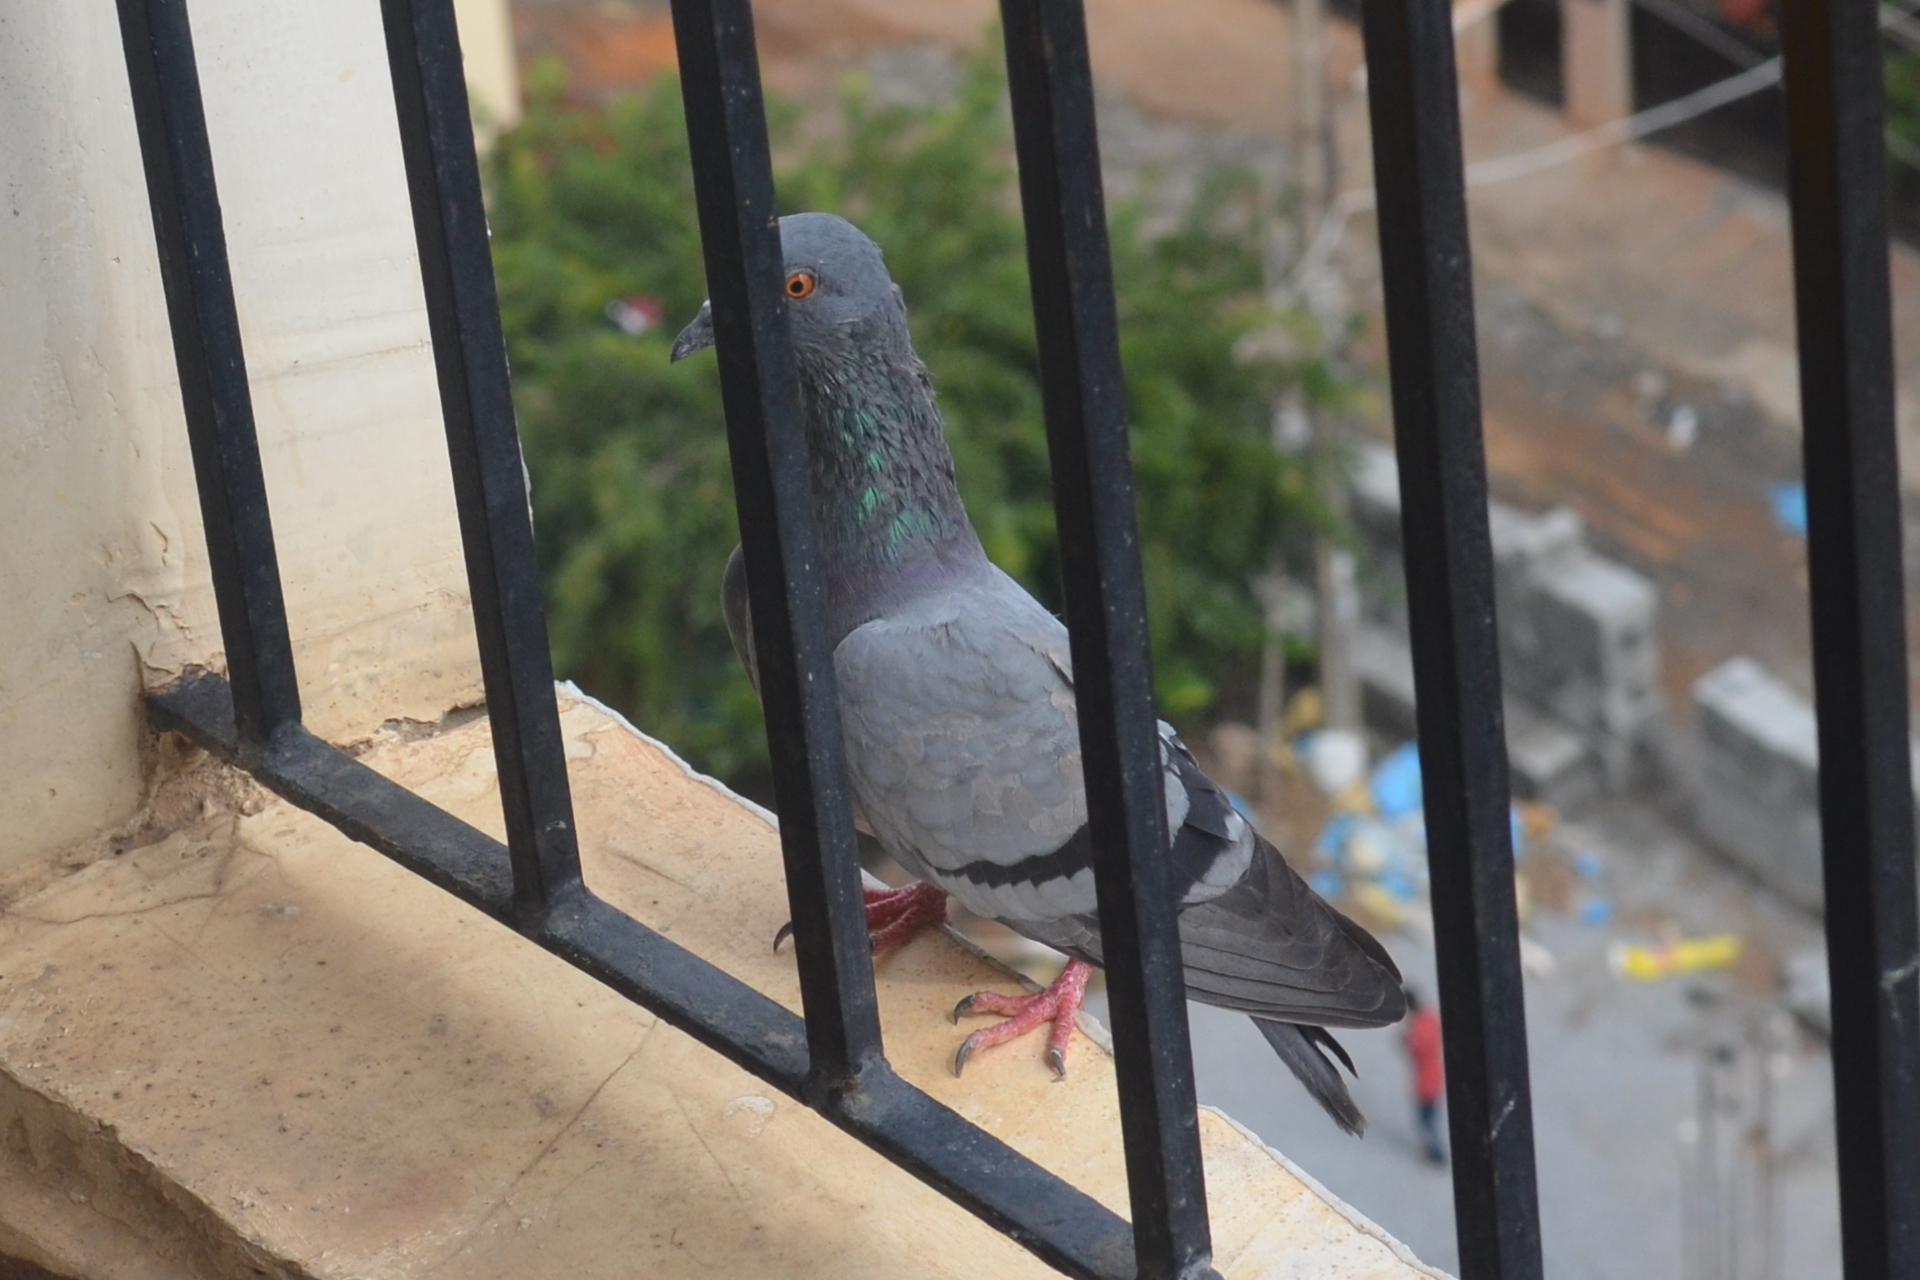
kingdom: Animalia
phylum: Chordata
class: Aves
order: Columbiformes
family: Columbidae
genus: Columba
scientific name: Columba livia
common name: Rock pigeon
